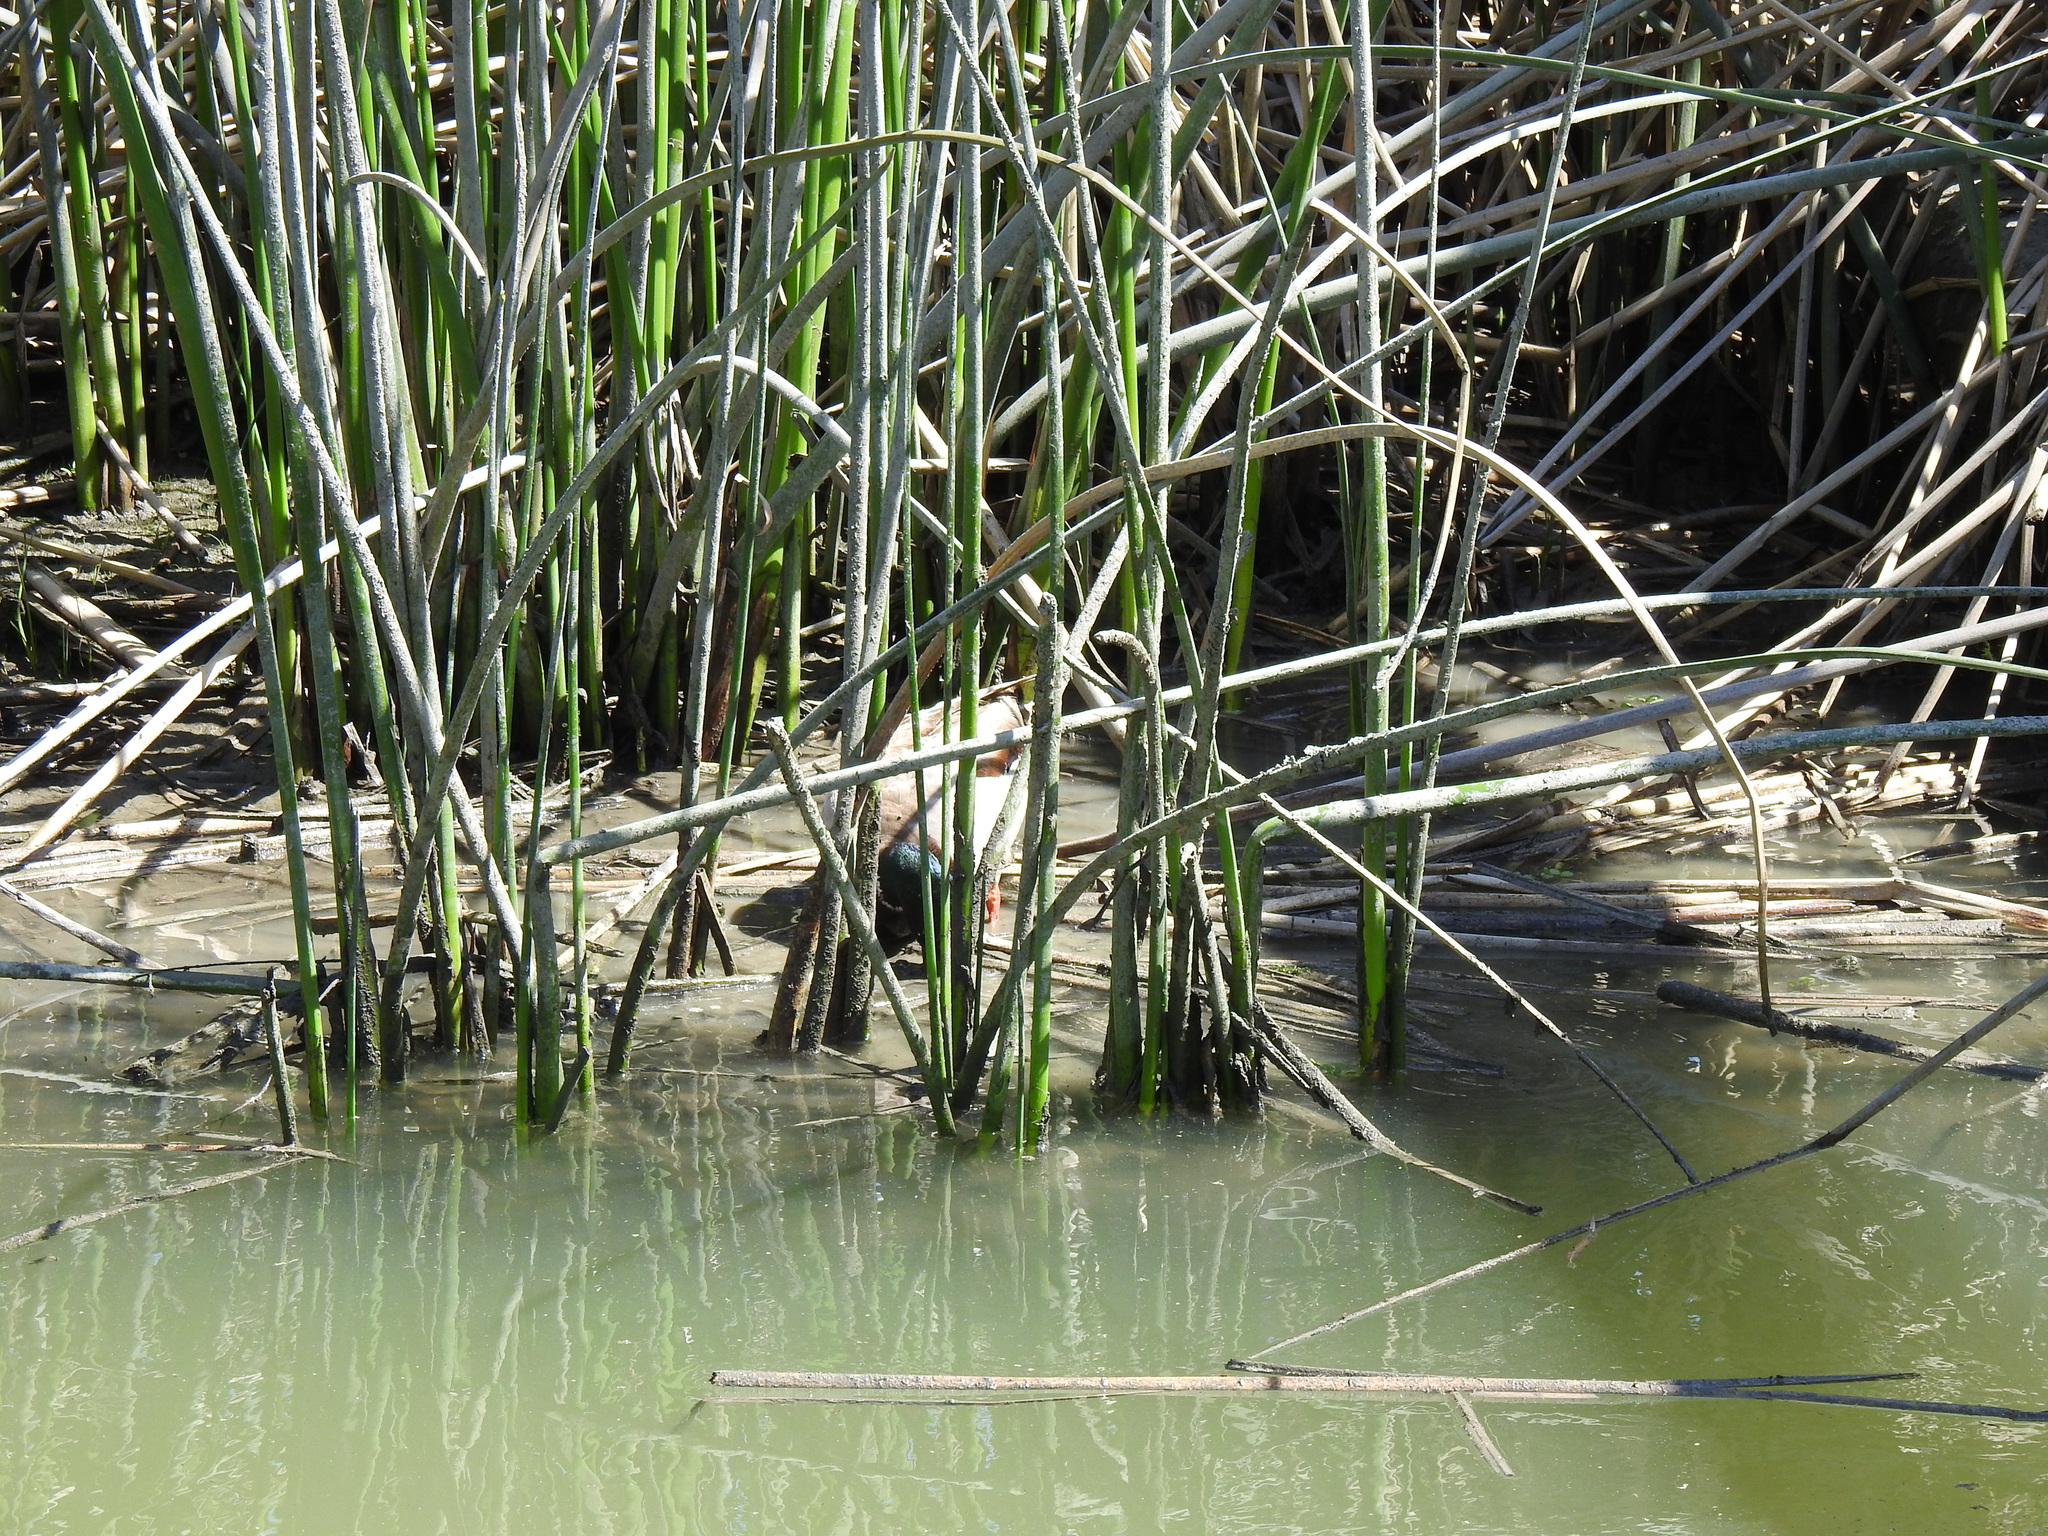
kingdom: Animalia
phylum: Chordata
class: Aves
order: Anseriformes
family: Anatidae
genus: Anas
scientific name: Anas platyrhynchos
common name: Mallard
